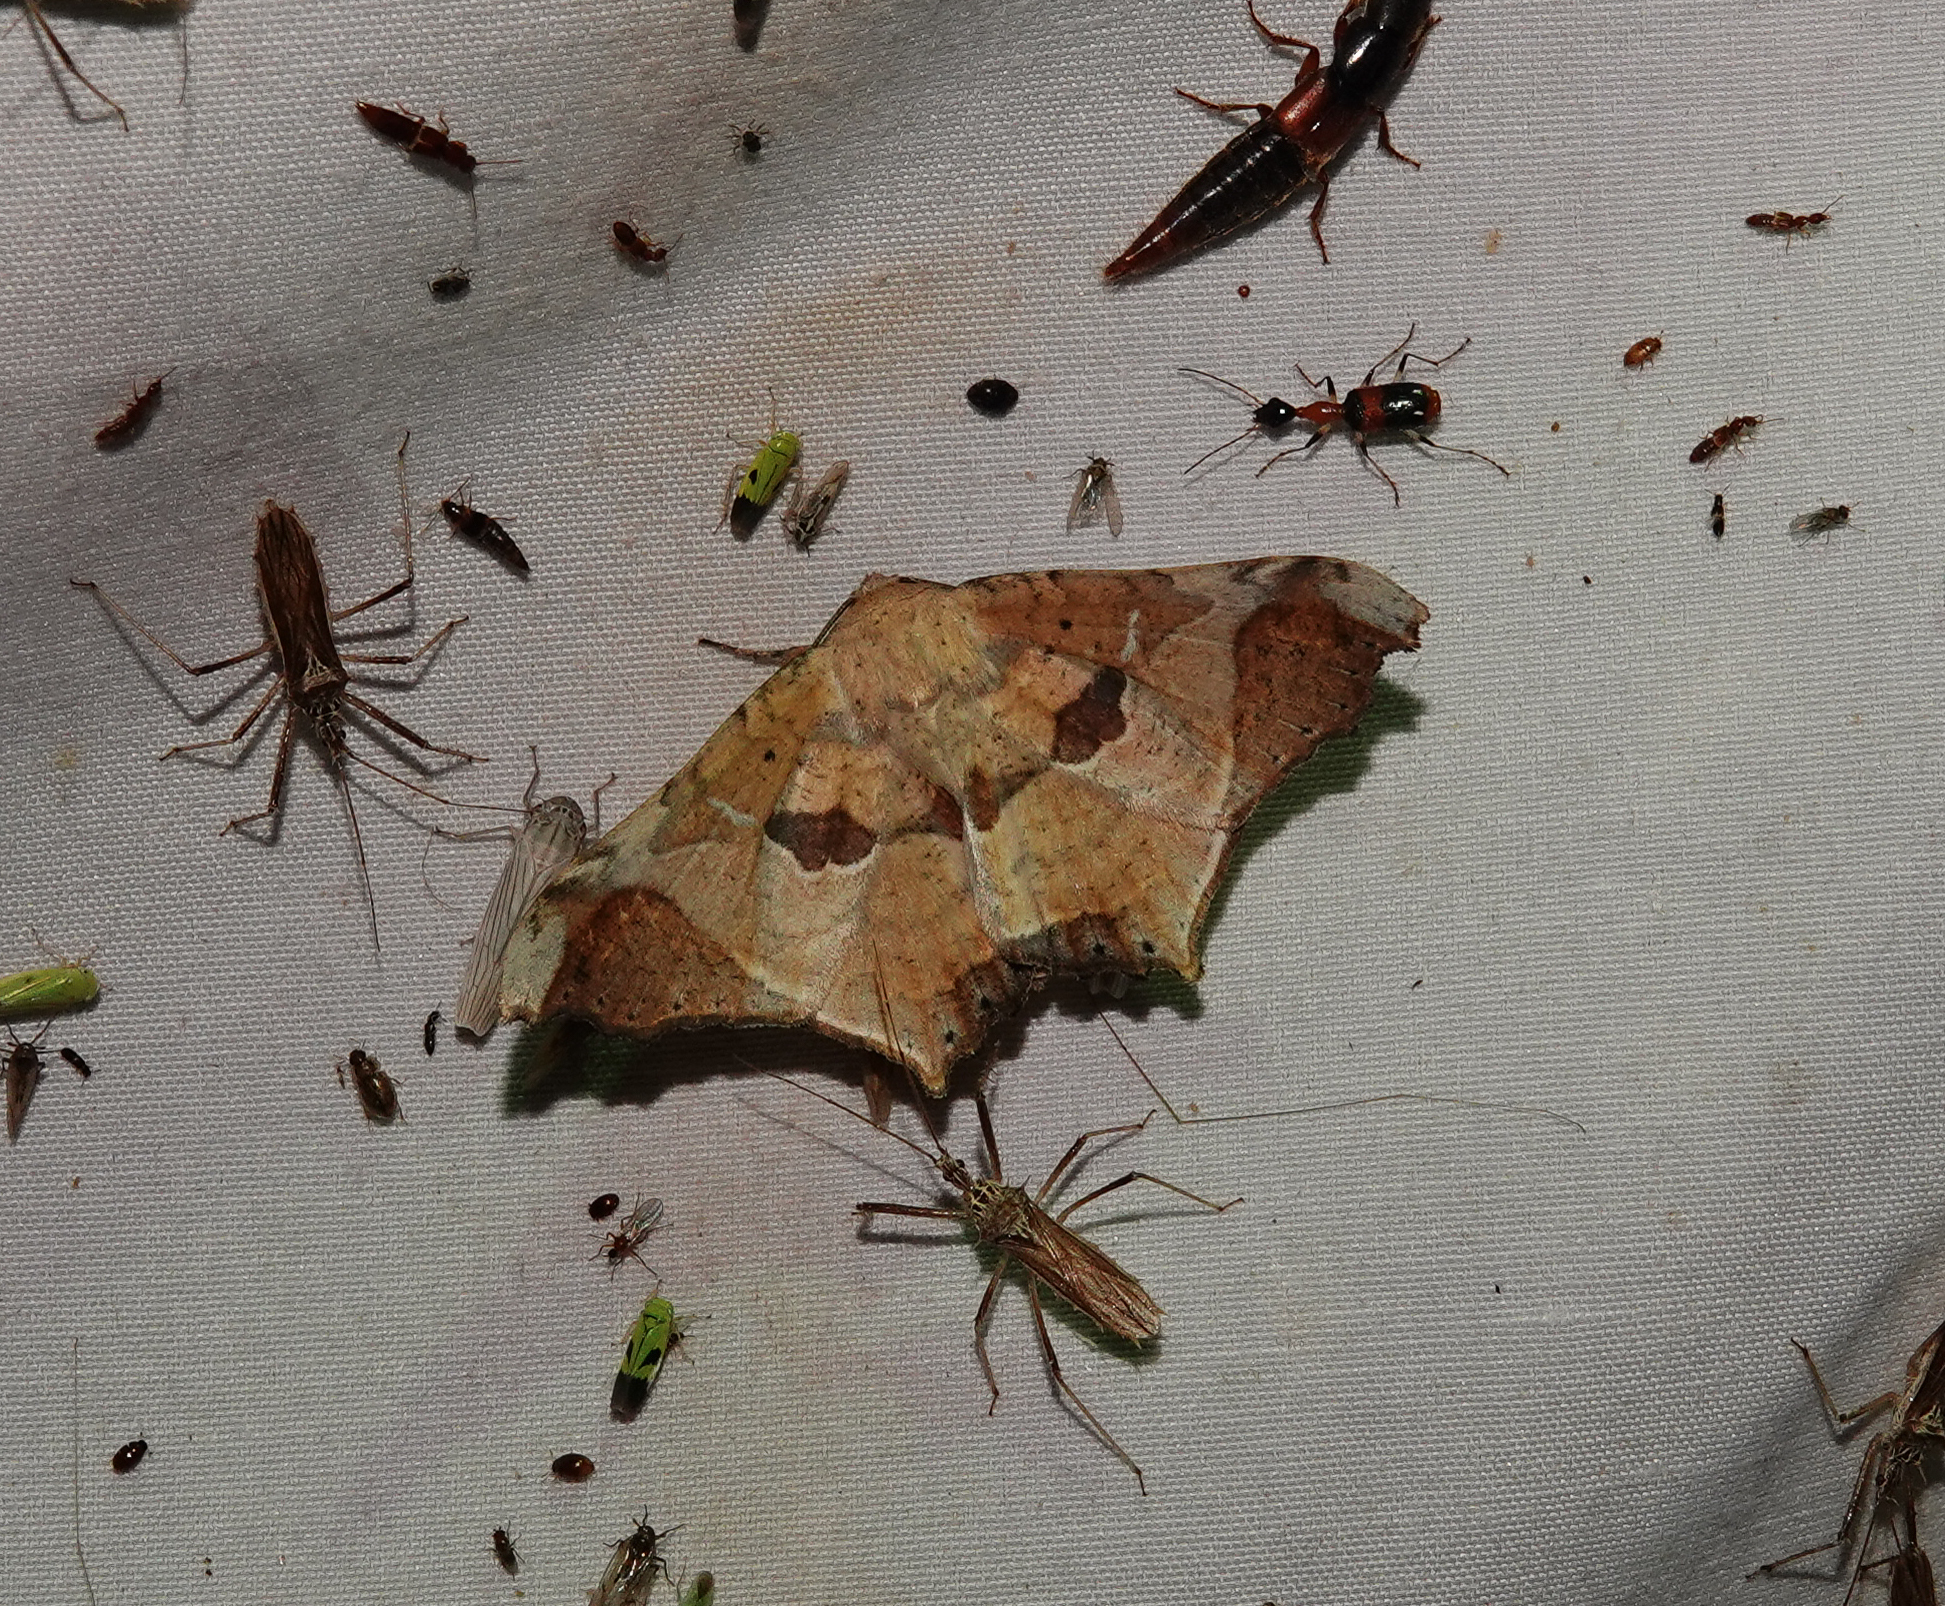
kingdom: Animalia
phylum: Arthropoda
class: Insecta
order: Lepidoptera
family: Erebidae
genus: Semiothisops
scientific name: Semiothisops macariata
